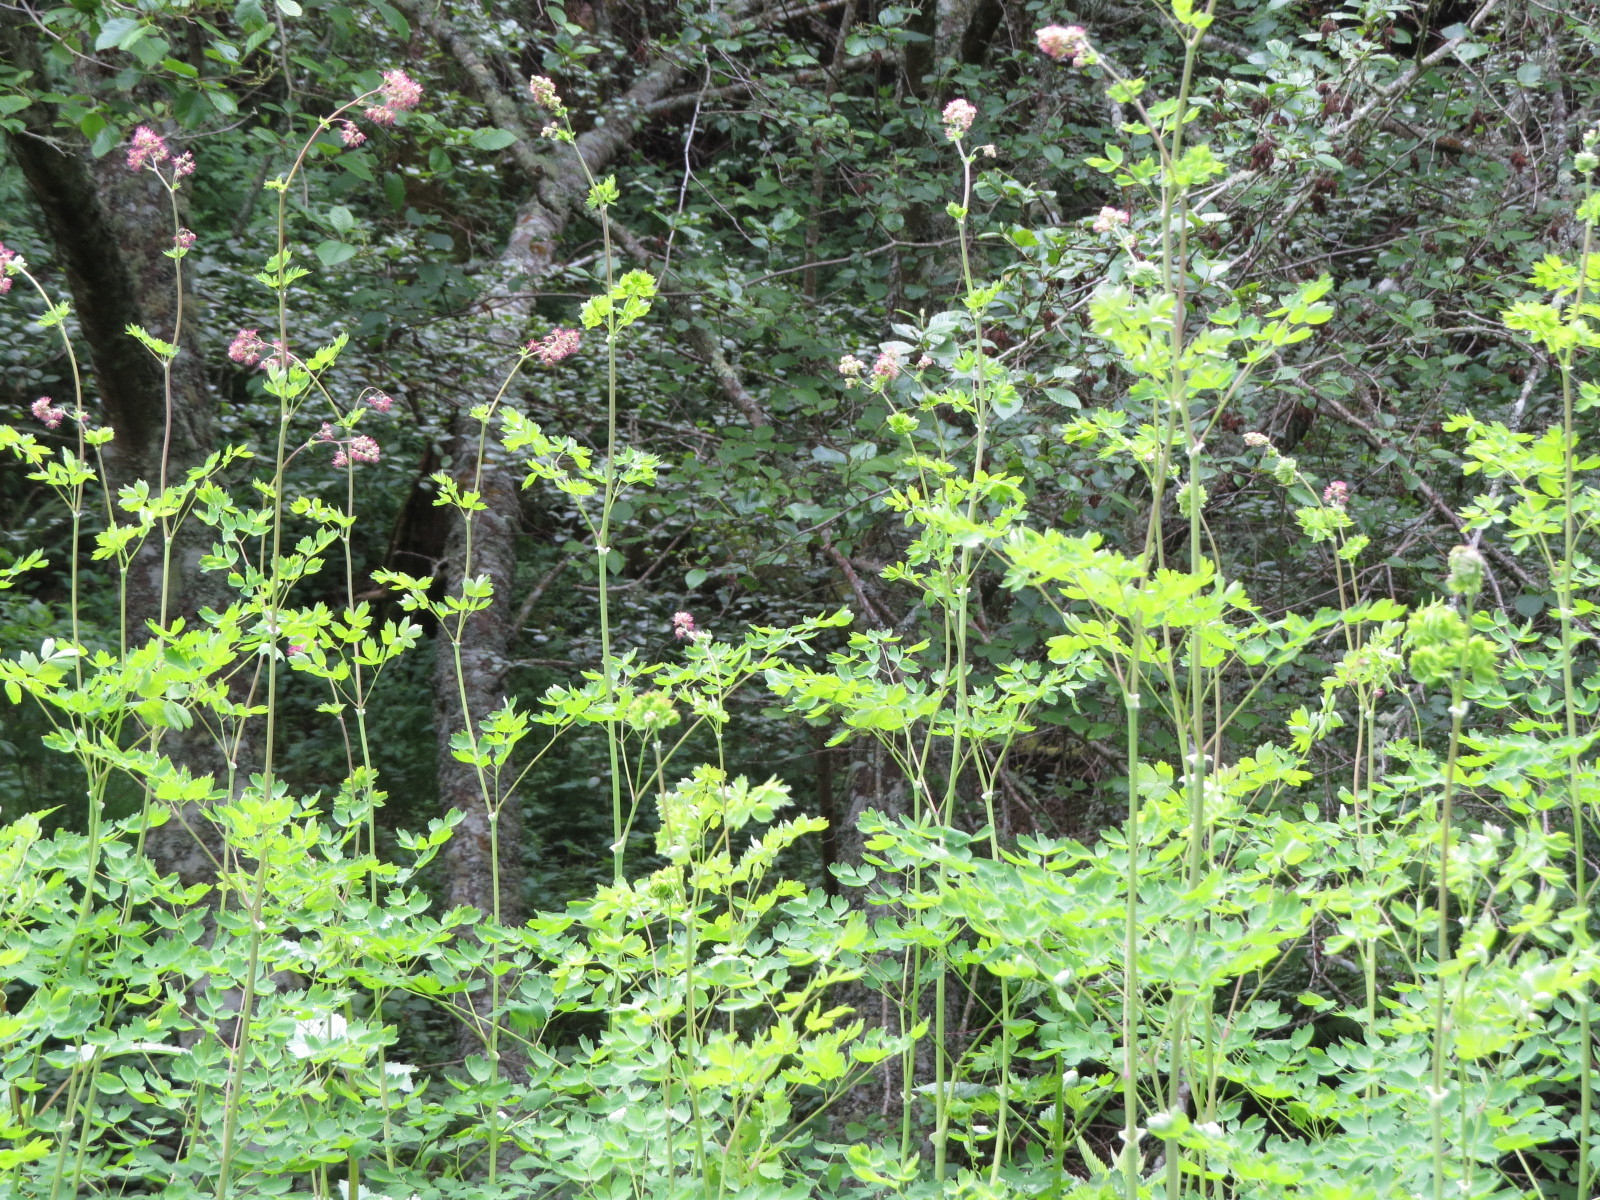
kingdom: Plantae
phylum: Tracheophyta
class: Magnoliopsida
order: Ranunculales
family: Ranunculaceae
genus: Thalictrum
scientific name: Thalictrum fendleri
